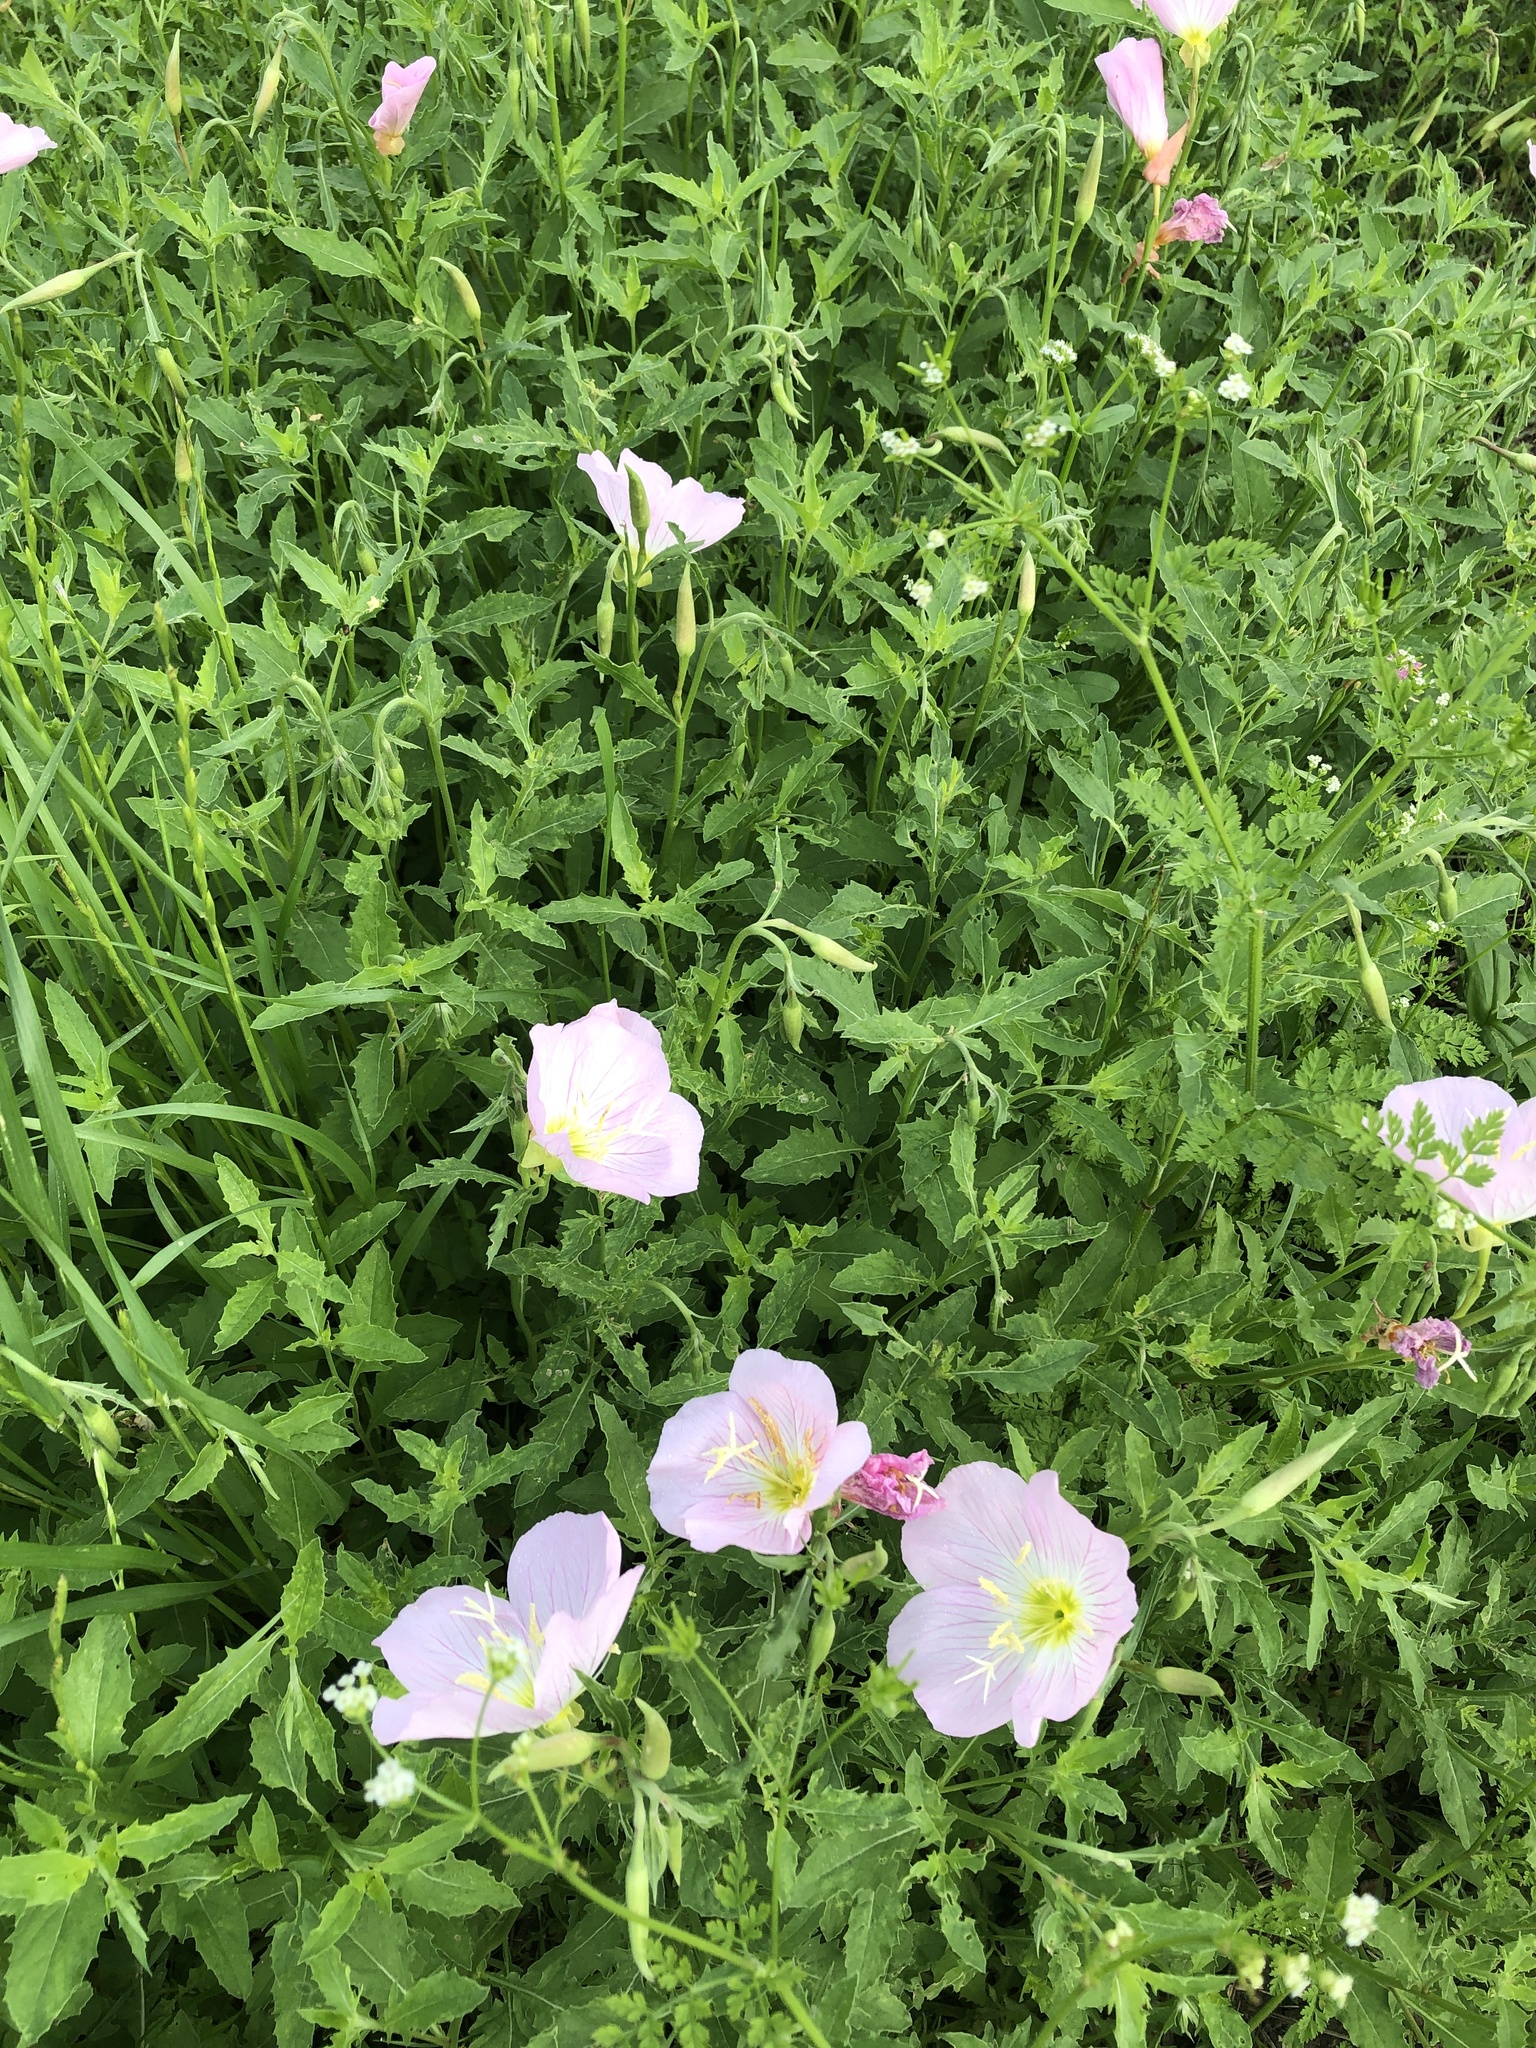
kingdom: Plantae
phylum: Tracheophyta
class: Magnoliopsida
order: Myrtales
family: Onagraceae
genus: Oenothera
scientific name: Oenothera speciosa
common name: White evening-primrose
